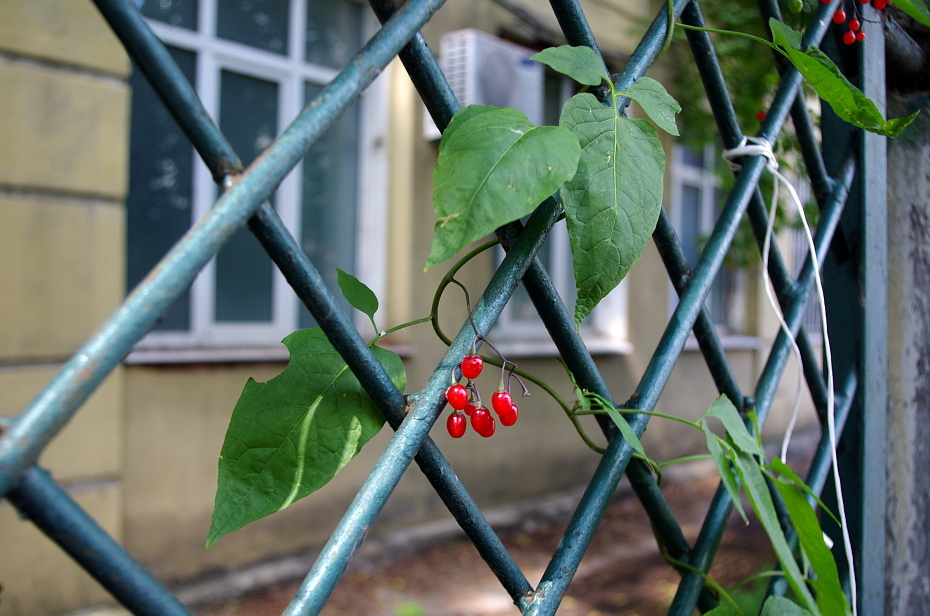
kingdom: Plantae
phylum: Tracheophyta
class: Magnoliopsida
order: Solanales
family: Solanaceae
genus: Solanum
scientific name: Solanum dulcamara
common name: Climbing nightshade
